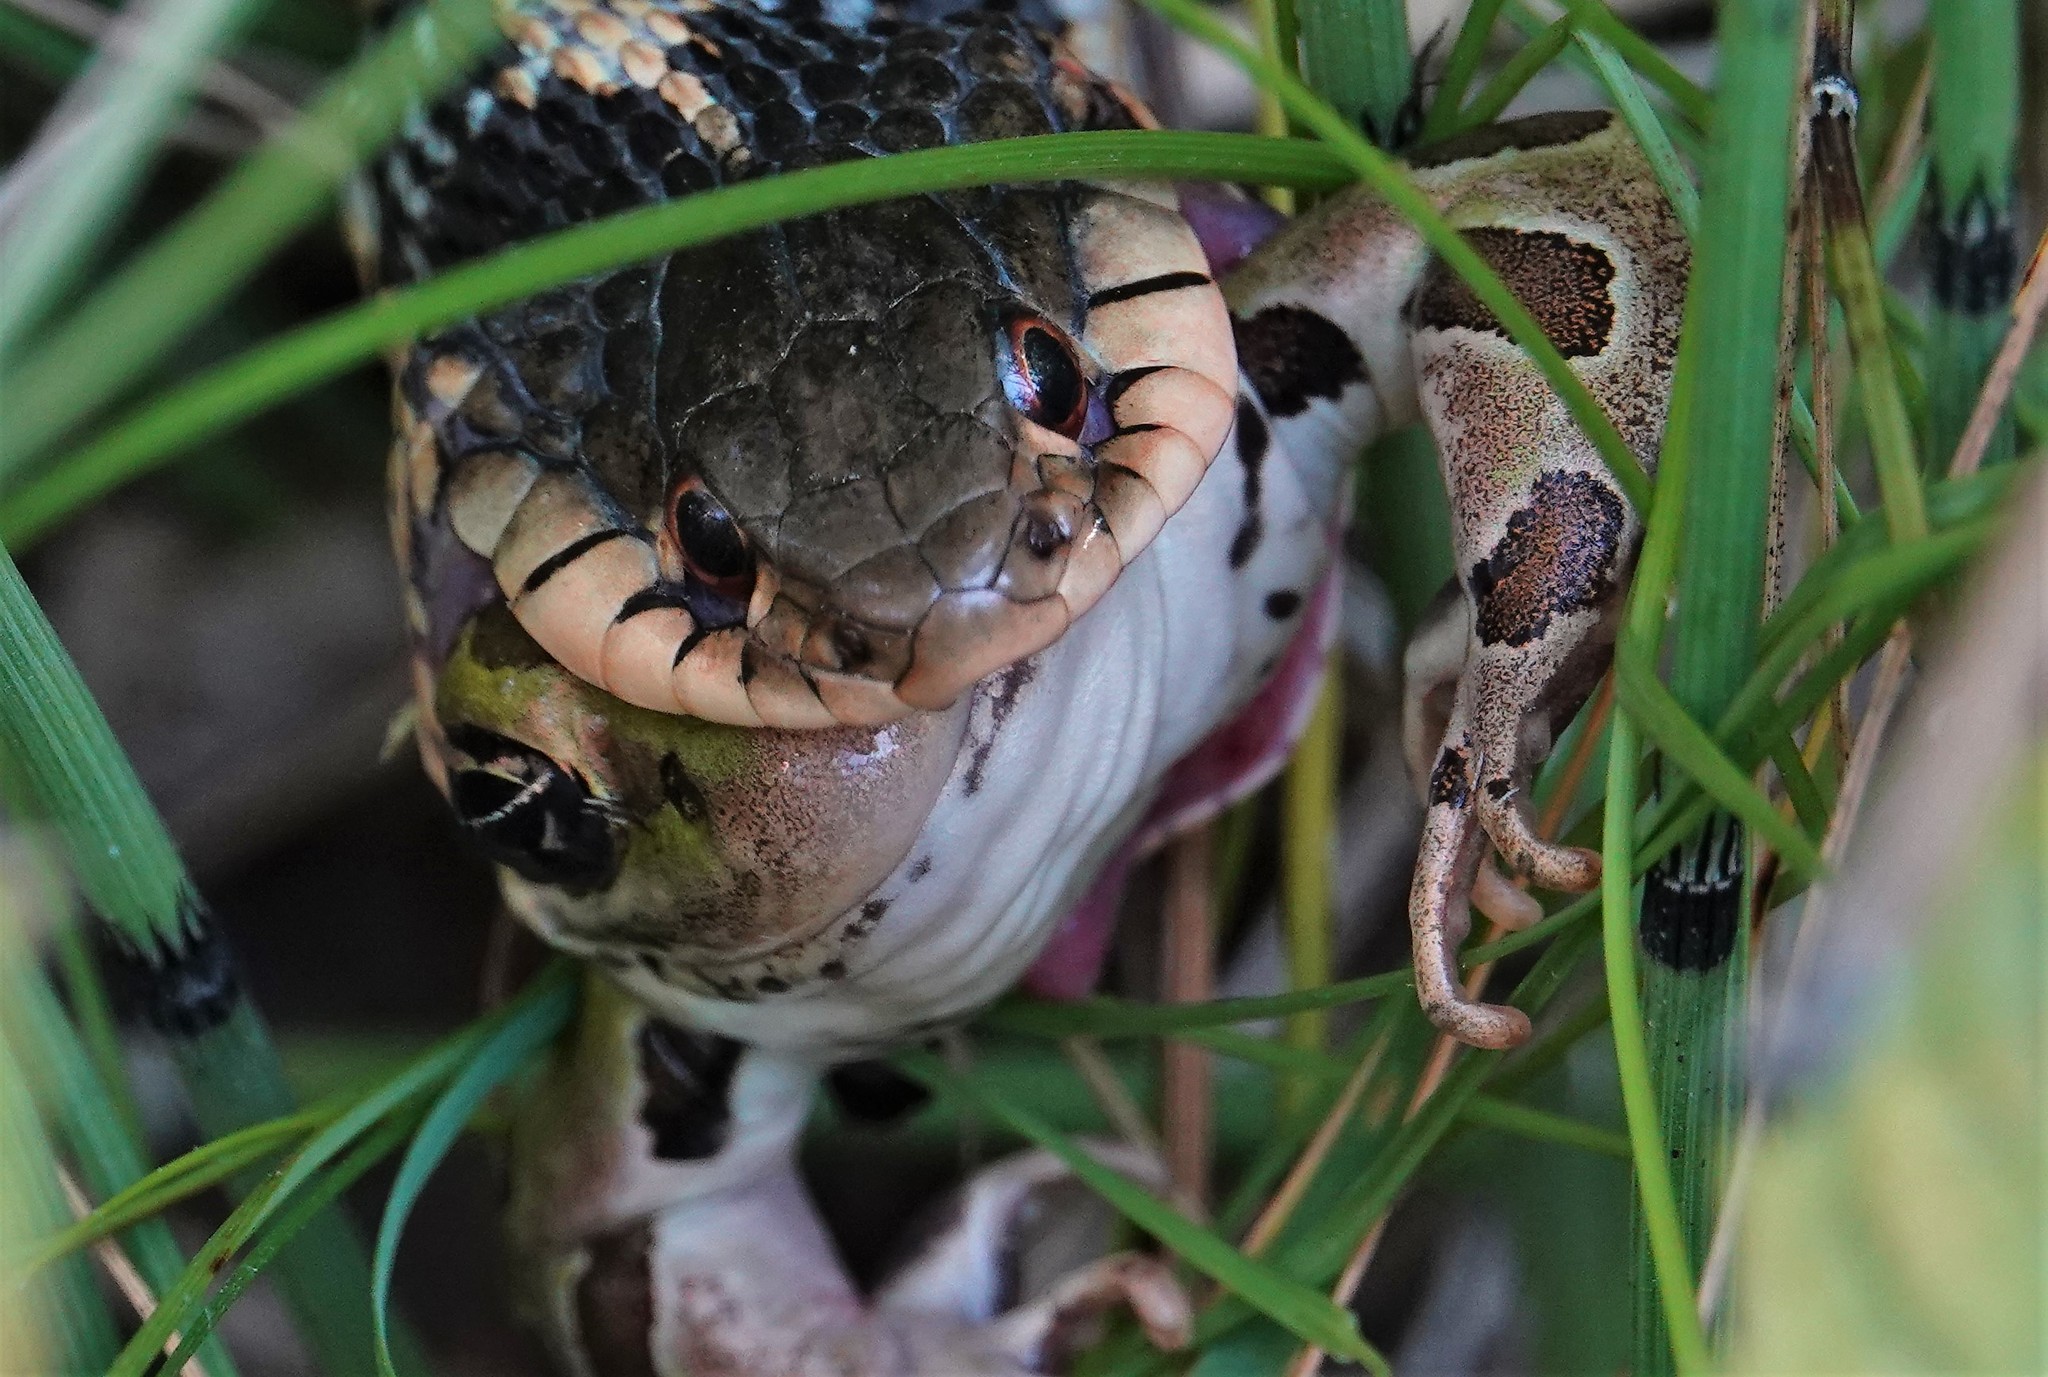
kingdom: Animalia
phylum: Chordata
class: Squamata
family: Colubridae
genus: Thamnophis
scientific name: Thamnophis sirtalis
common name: Common garter snake
